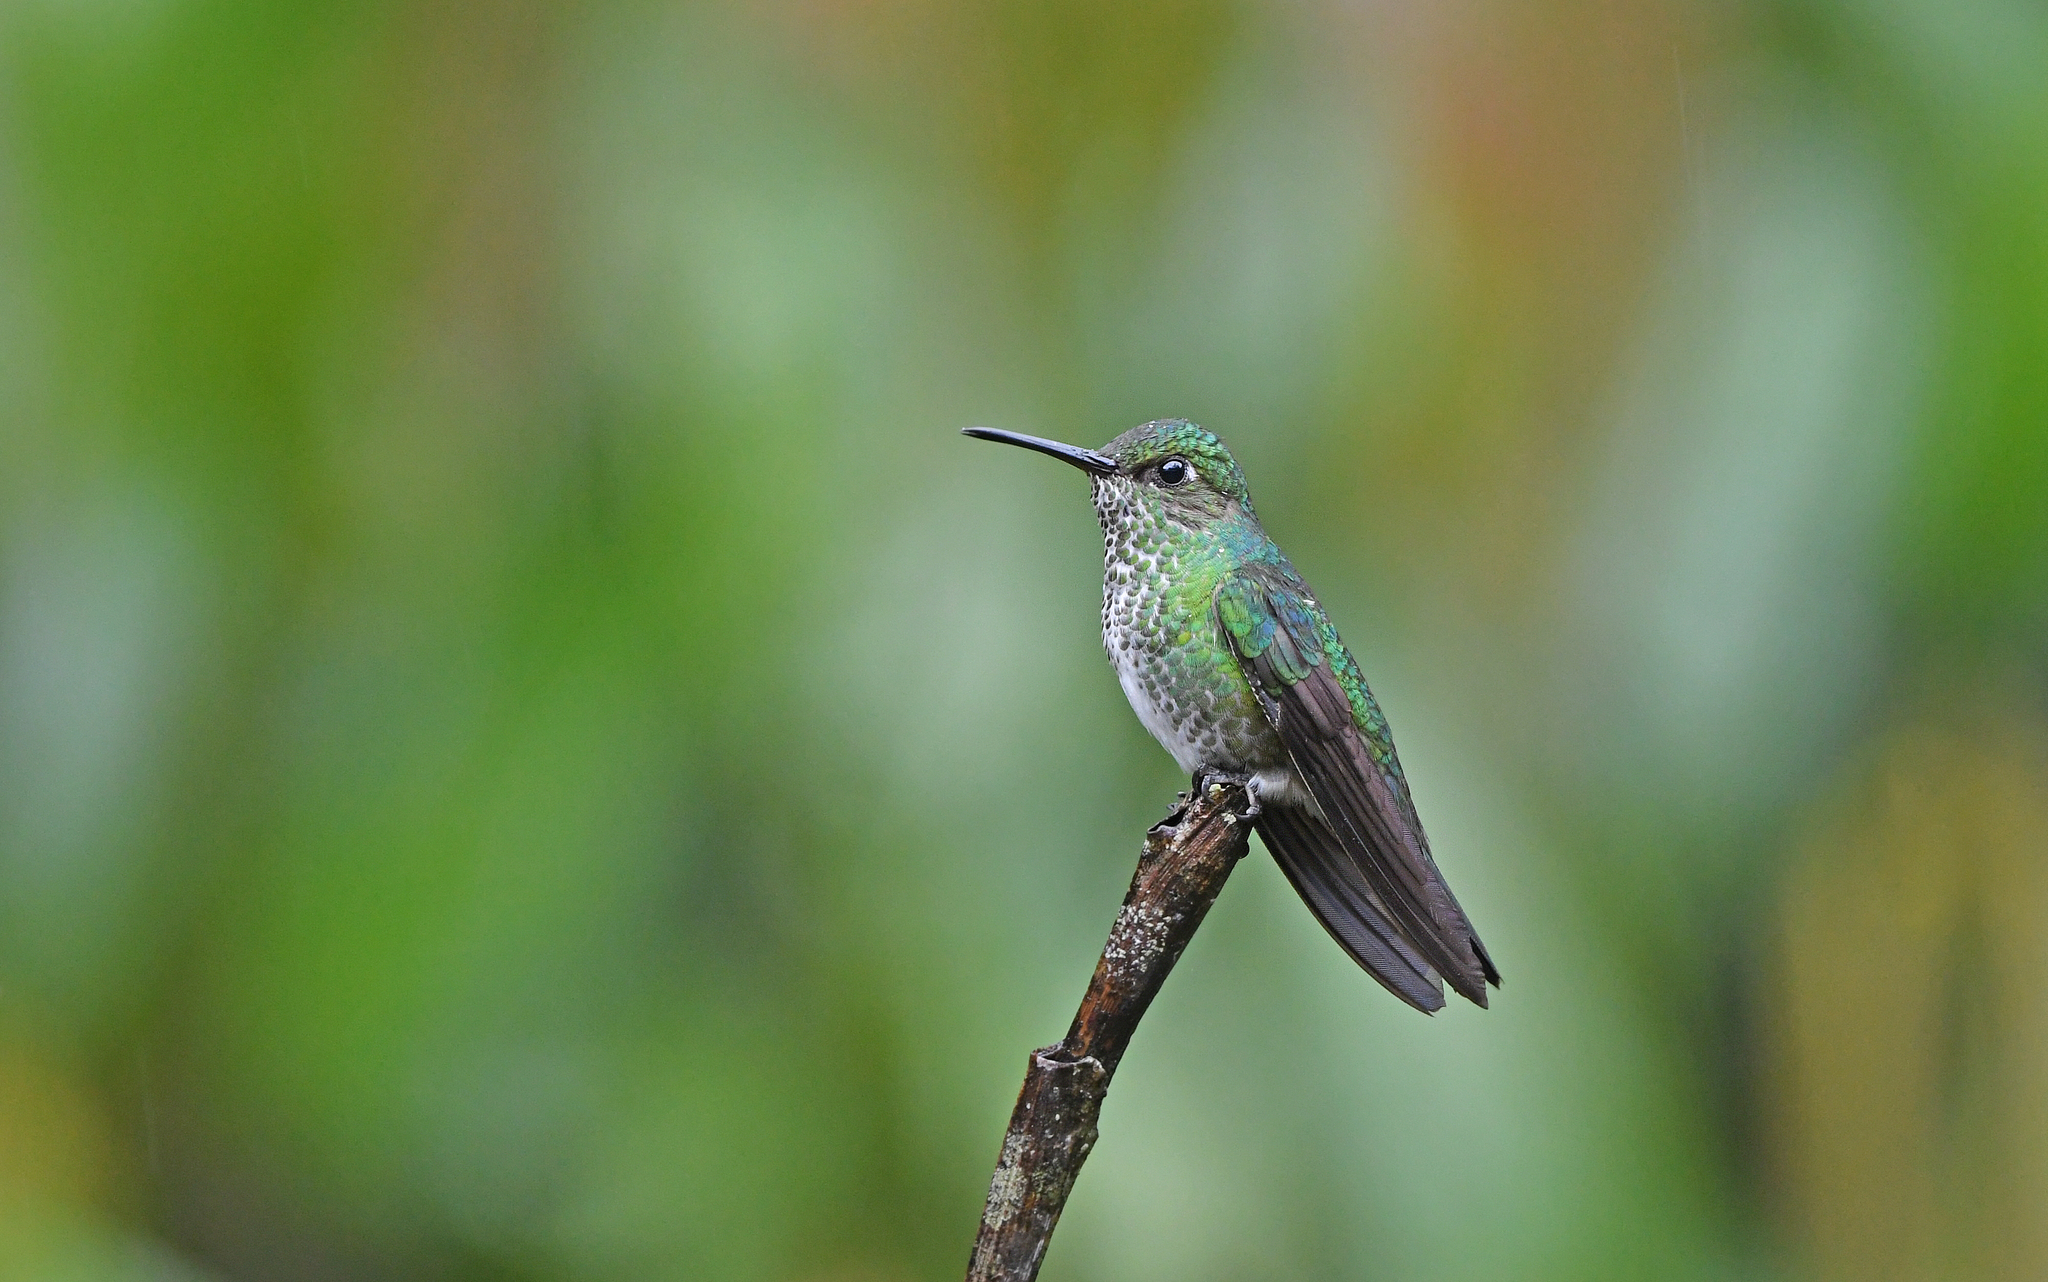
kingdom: Animalia
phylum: Chordata
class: Aves
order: Apodiformes
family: Trochilidae
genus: Taphrospilus
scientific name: Taphrospilus hypostictus
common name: Many-spotted hummingbird
